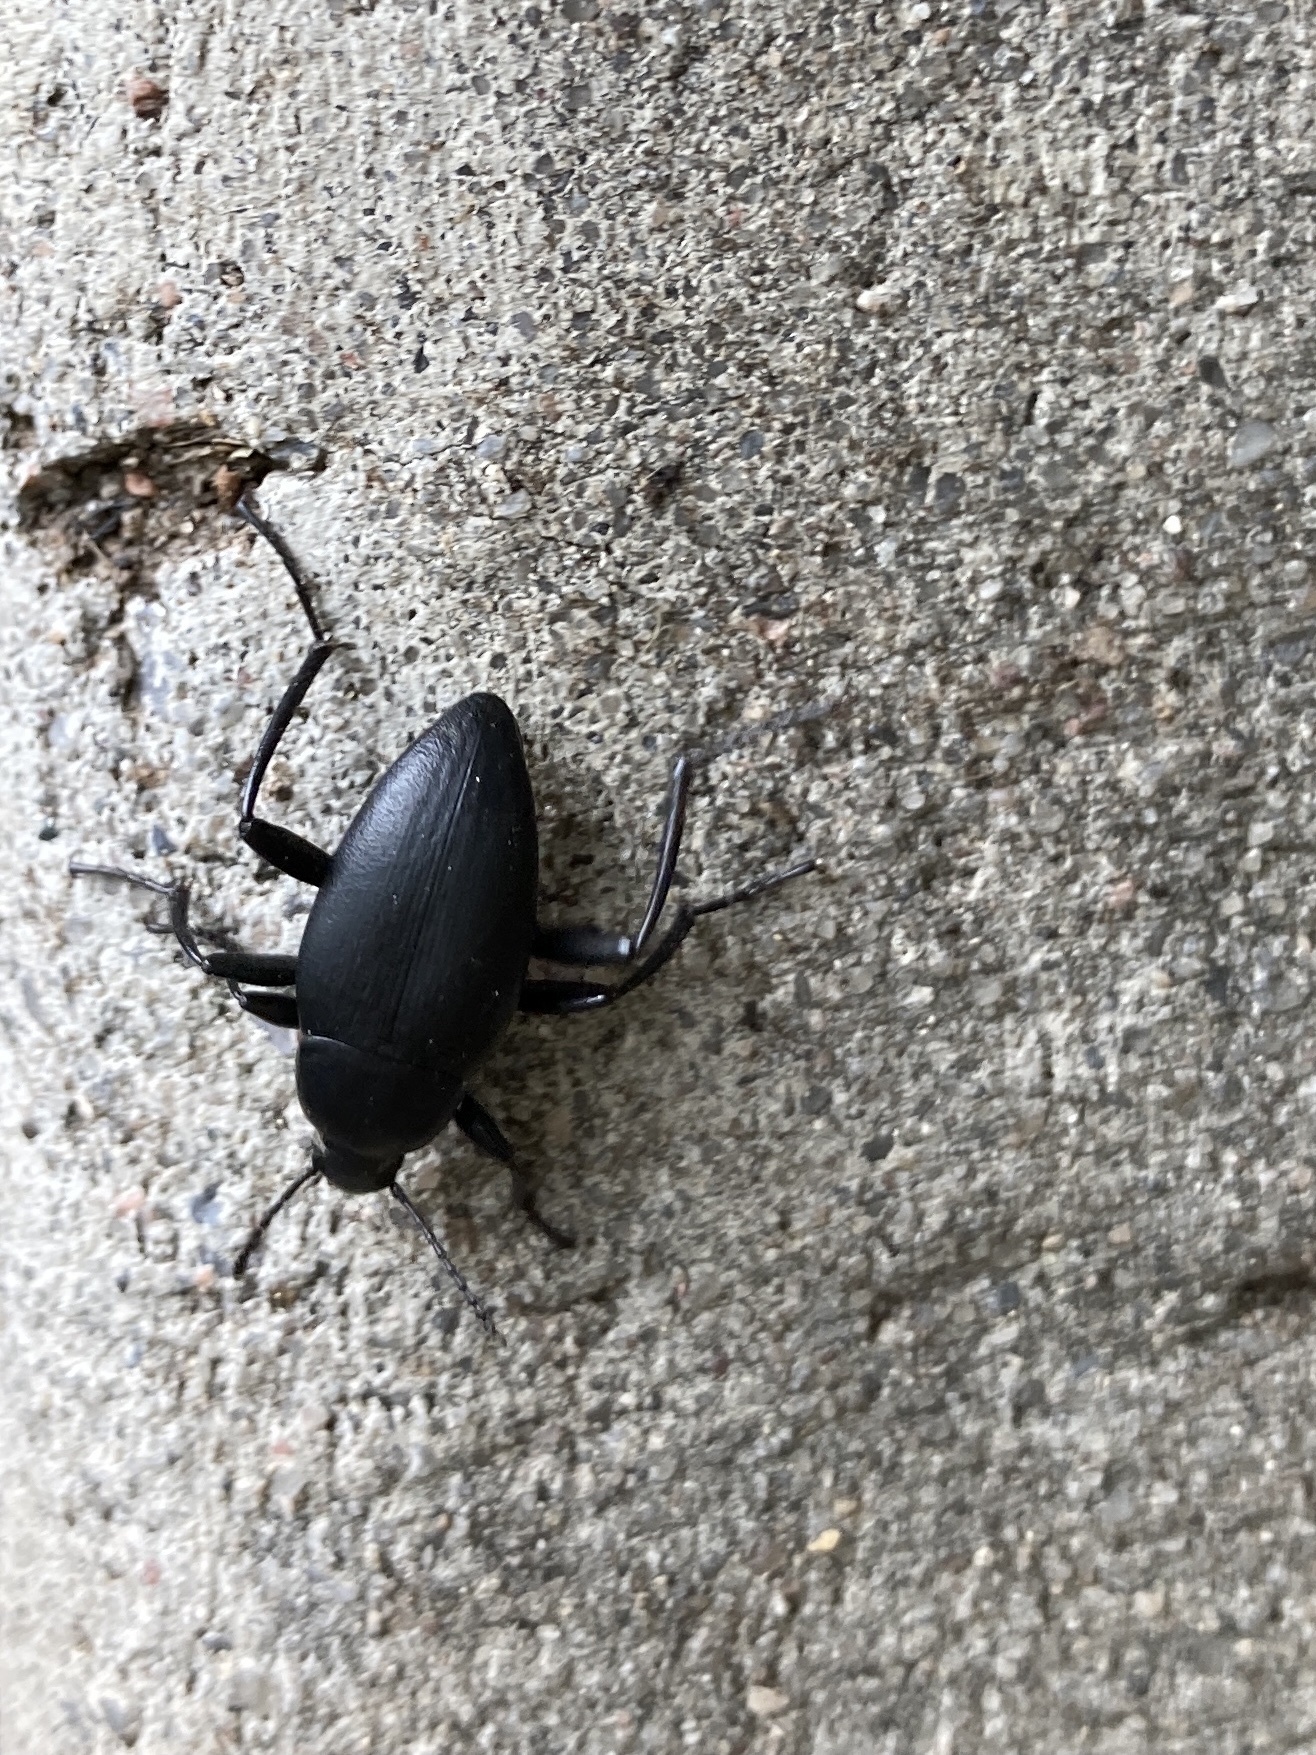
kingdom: Animalia
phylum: Arthropoda
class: Insecta
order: Coleoptera
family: Tenebrionidae
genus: Eleodes
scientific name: Eleodes fusiformis
